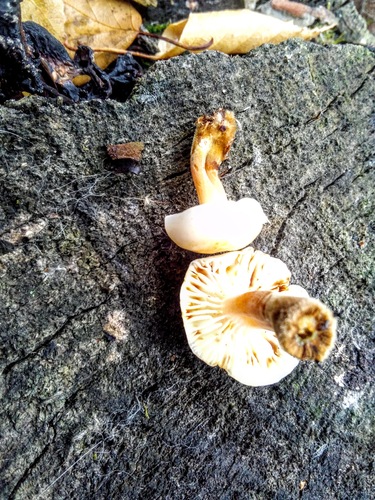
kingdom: Fungi
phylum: Basidiomycota
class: Agaricomycetes
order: Agaricales
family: Physalacriaceae
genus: Flammulina
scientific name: Flammulina
